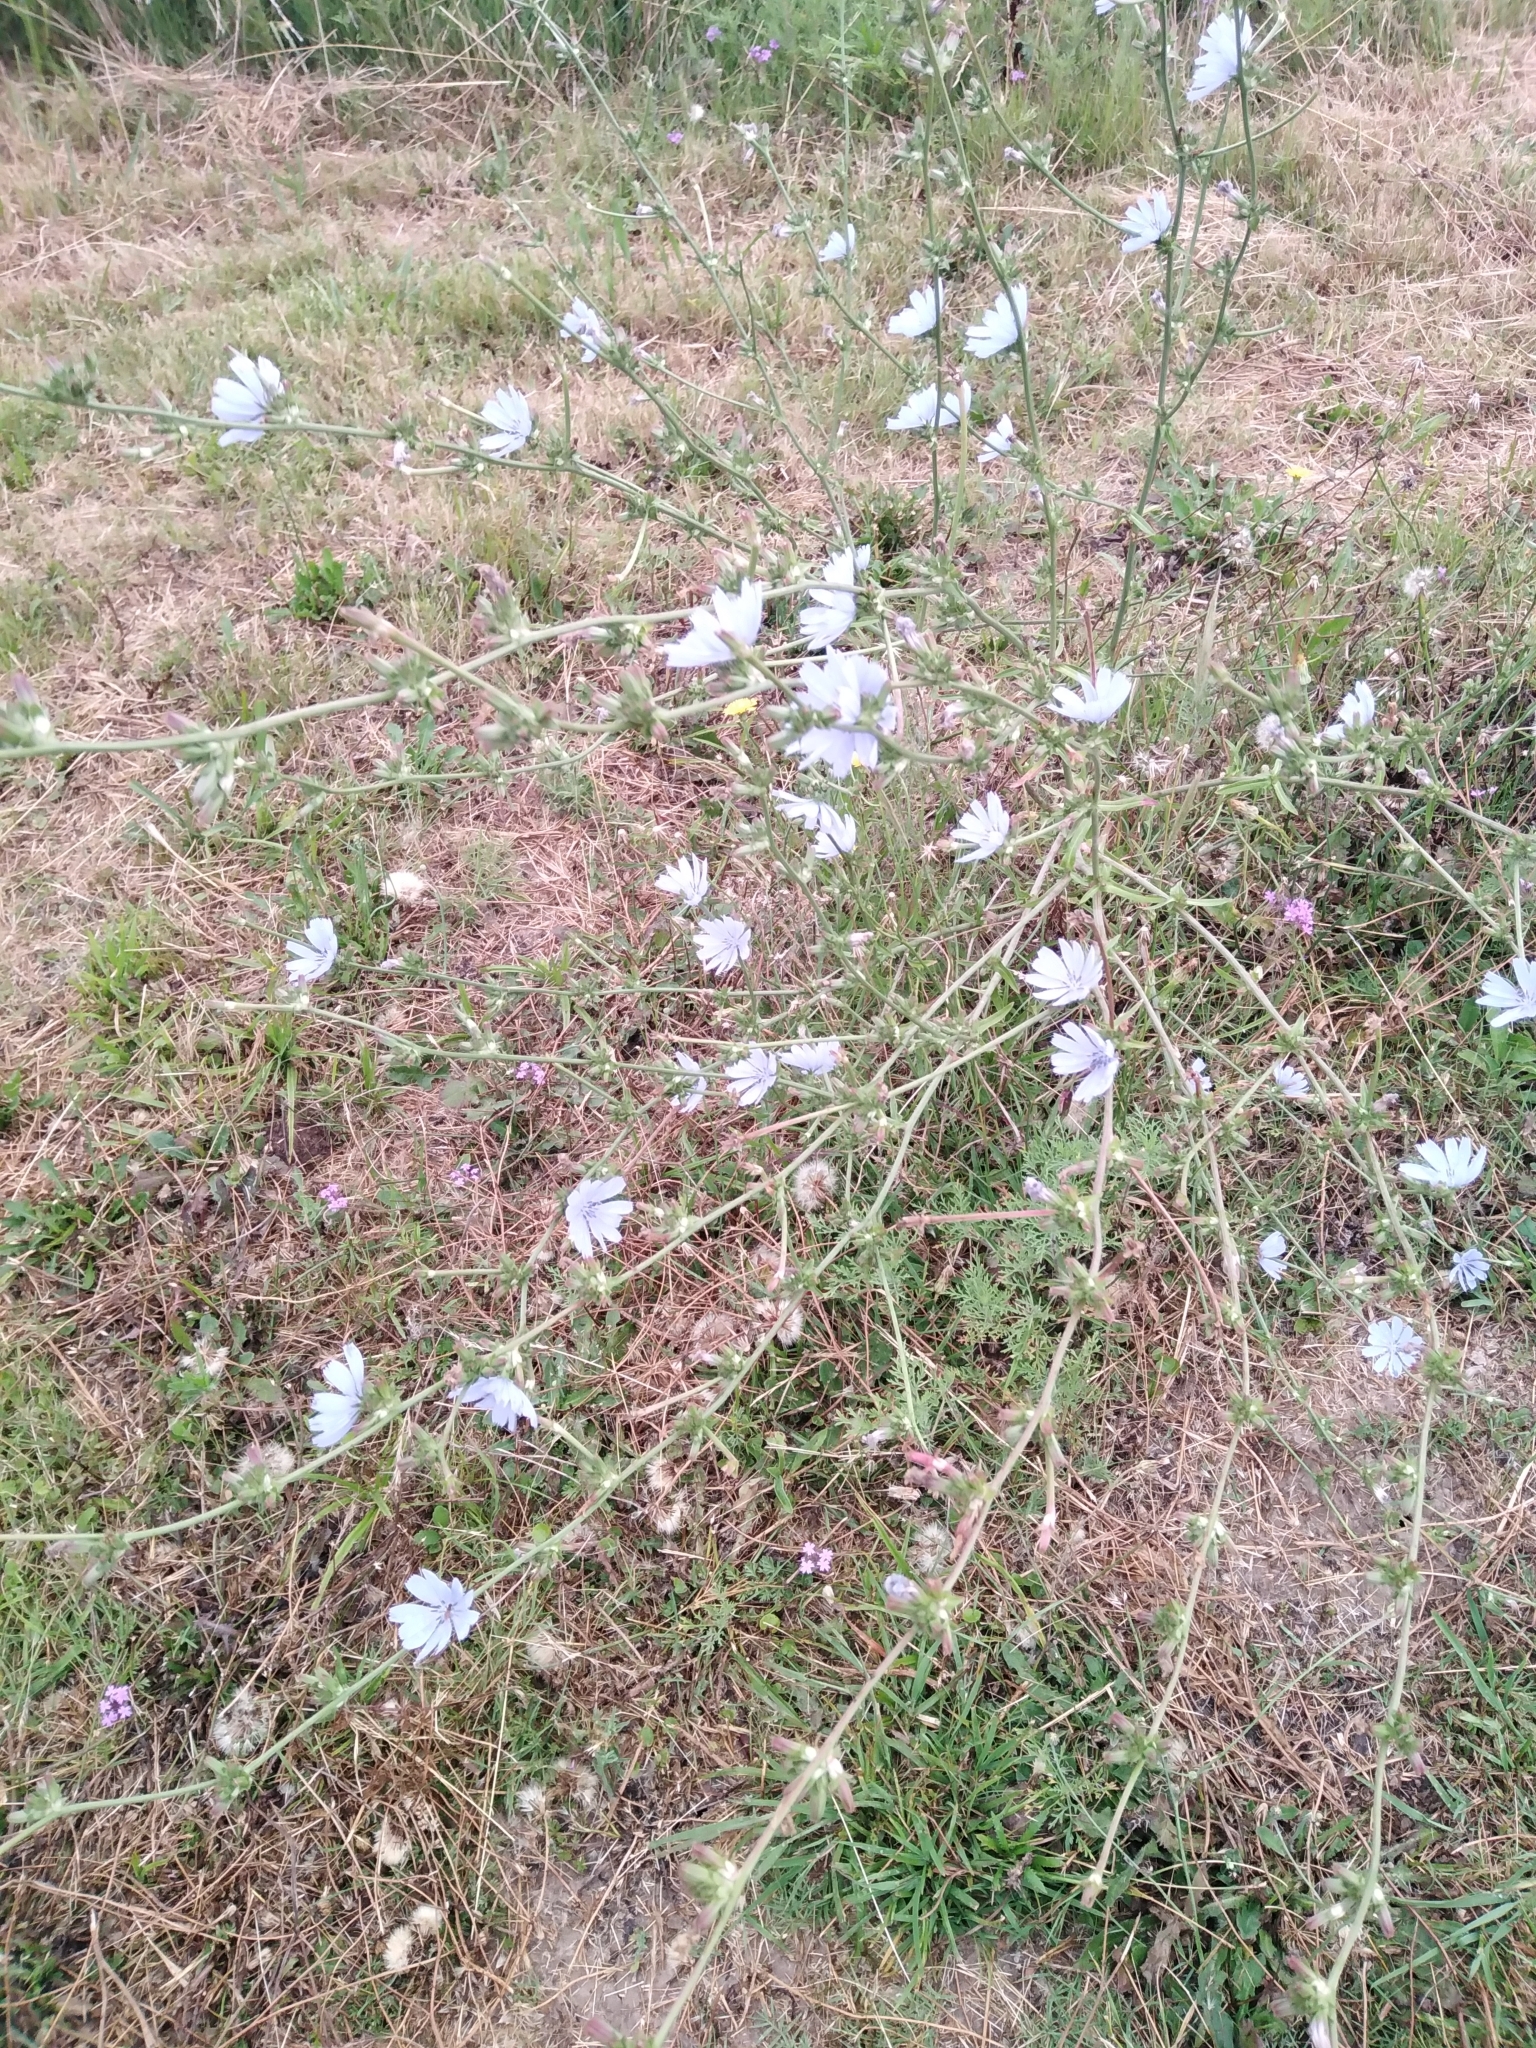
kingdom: Plantae
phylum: Tracheophyta
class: Magnoliopsida
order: Asterales
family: Asteraceae
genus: Cichorium
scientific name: Cichorium intybus
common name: Chicory
